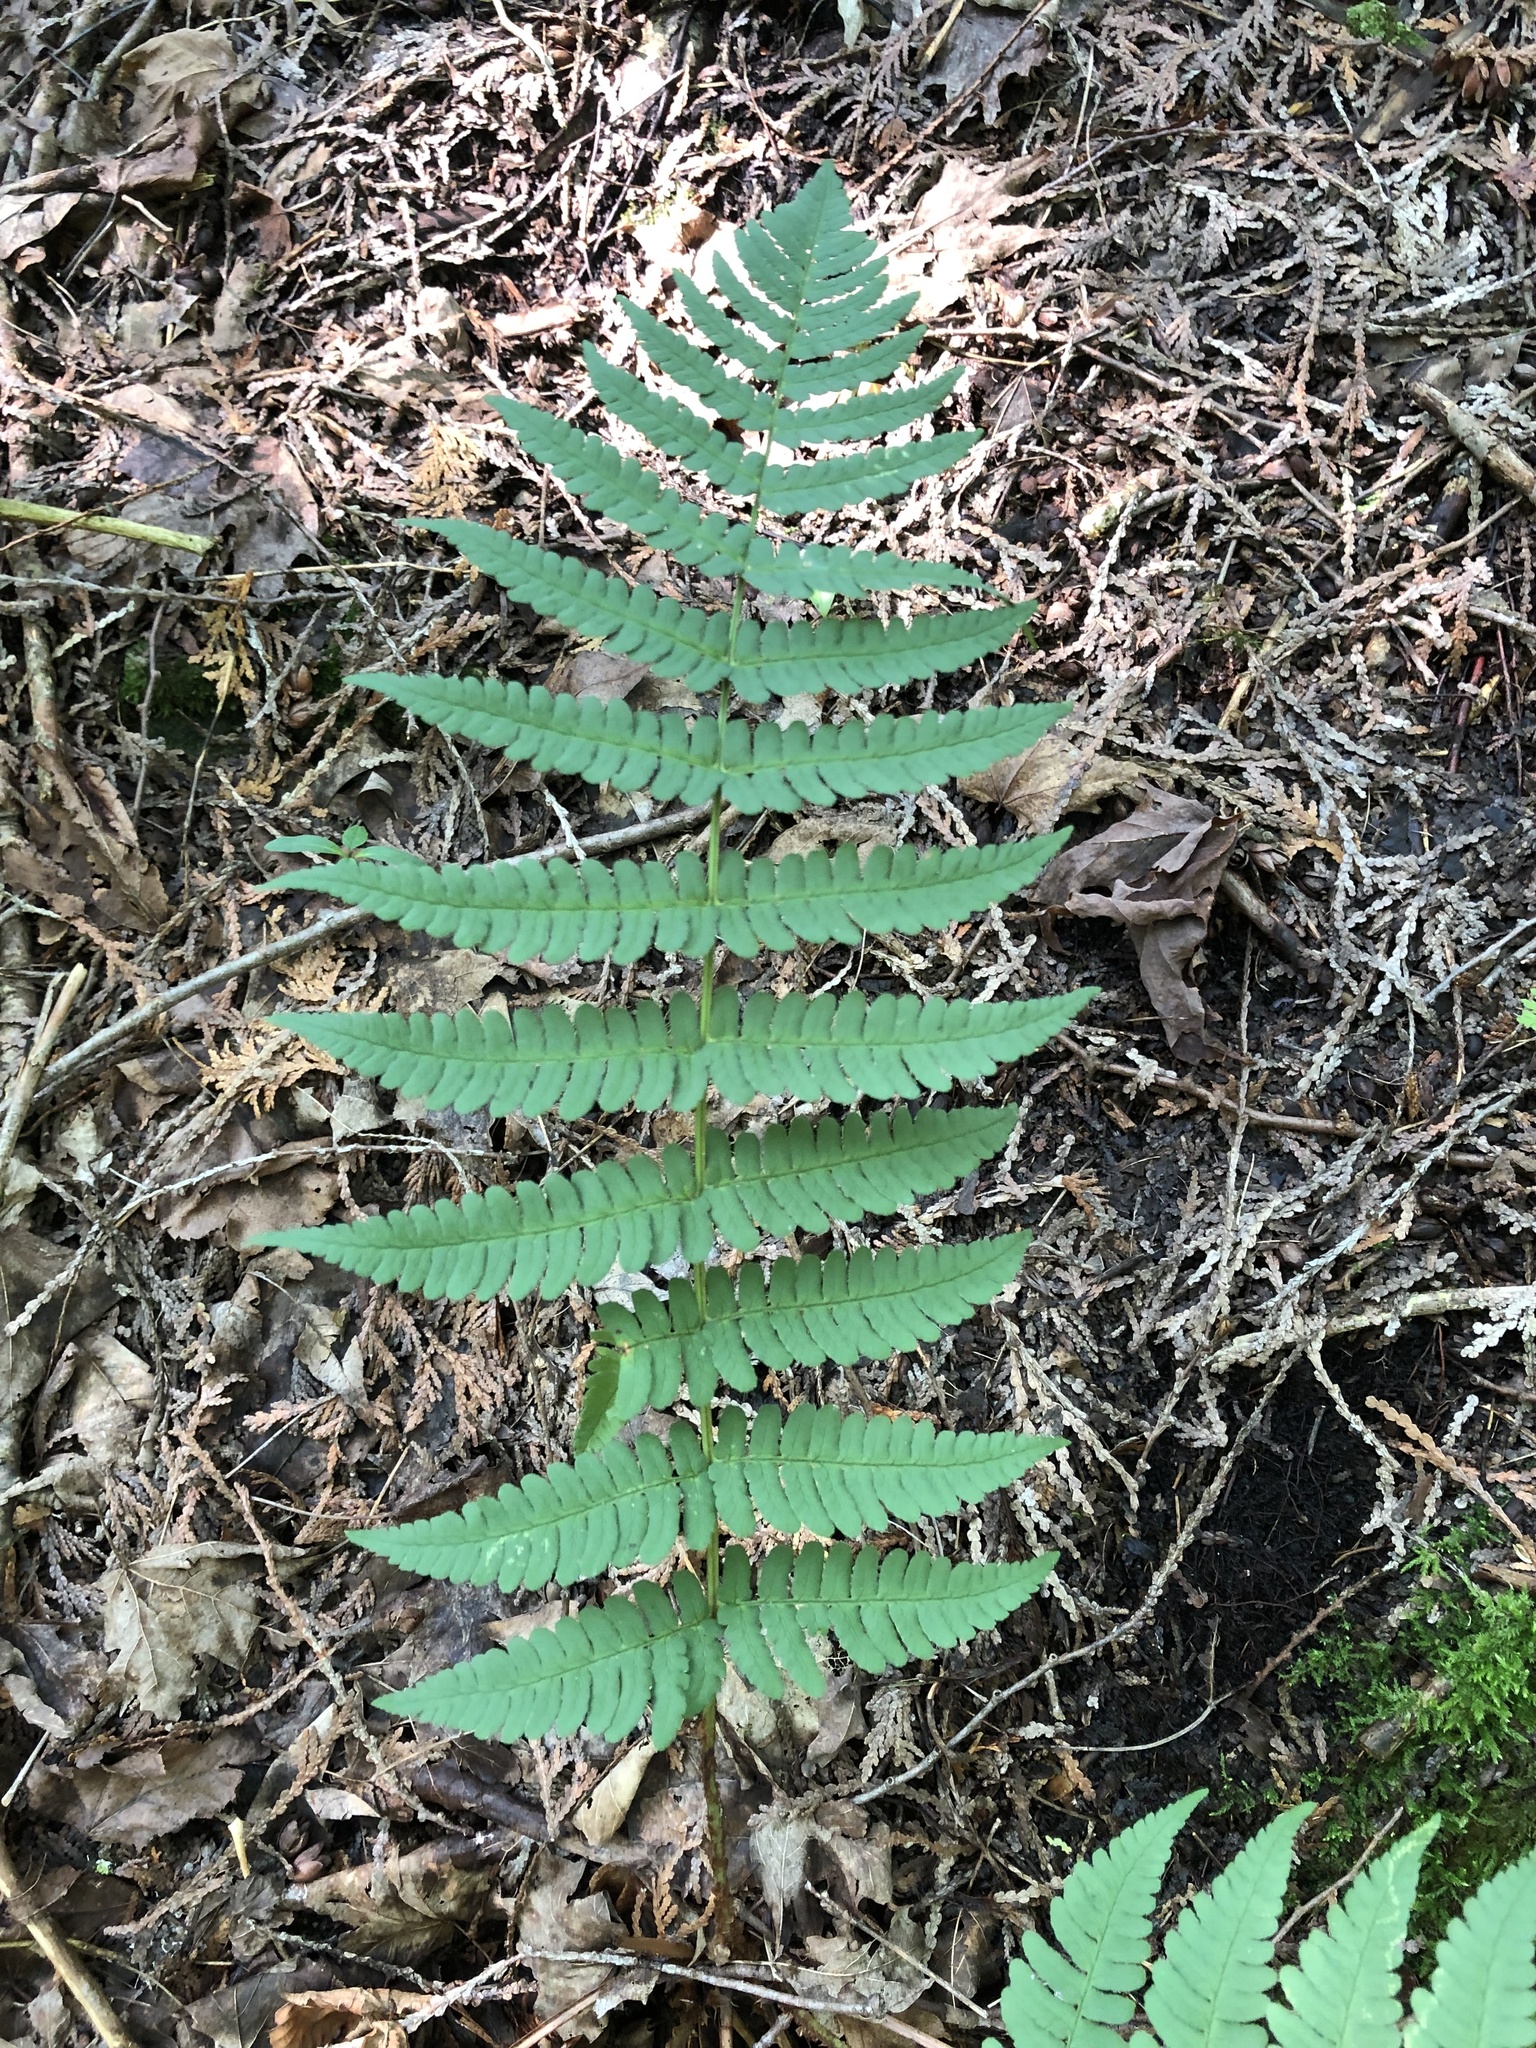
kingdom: Plantae
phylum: Tracheophyta
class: Polypodiopsida
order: Polypodiales
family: Dryopteridaceae
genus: Dryopteris
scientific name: Dryopteris marginalis
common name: Marginal wood fern
